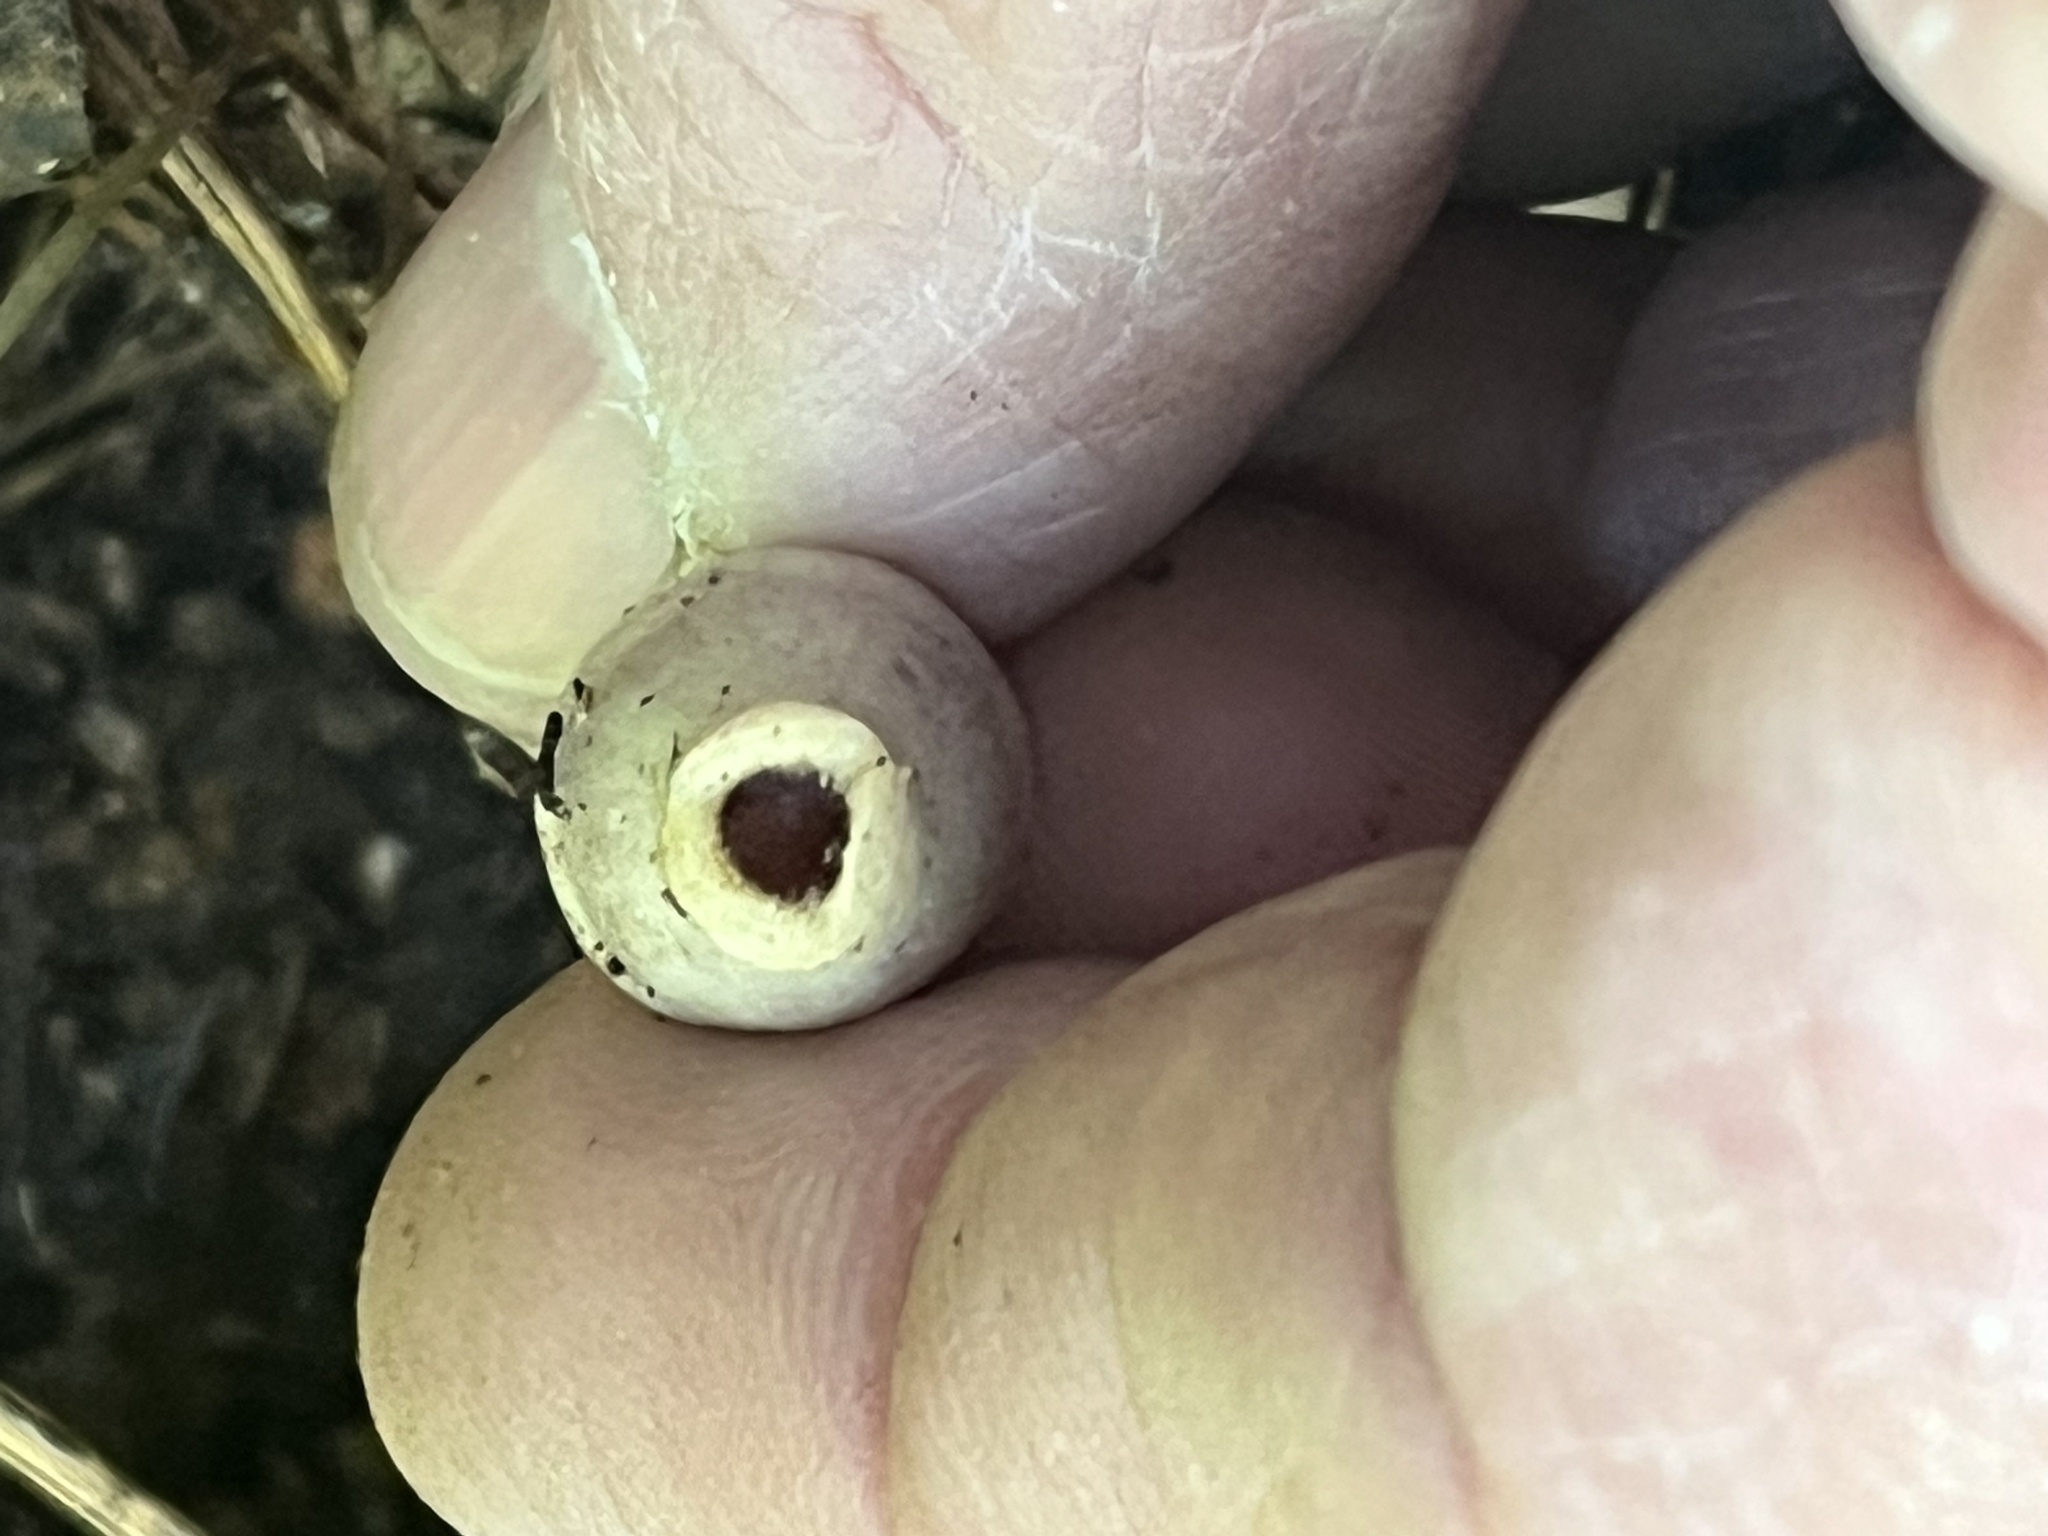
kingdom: Plantae
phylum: Tracheophyta
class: Magnoliopsida
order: Piperales
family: Aristolochiaceae
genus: Hexastylis
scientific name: Hexastylis arifolia
